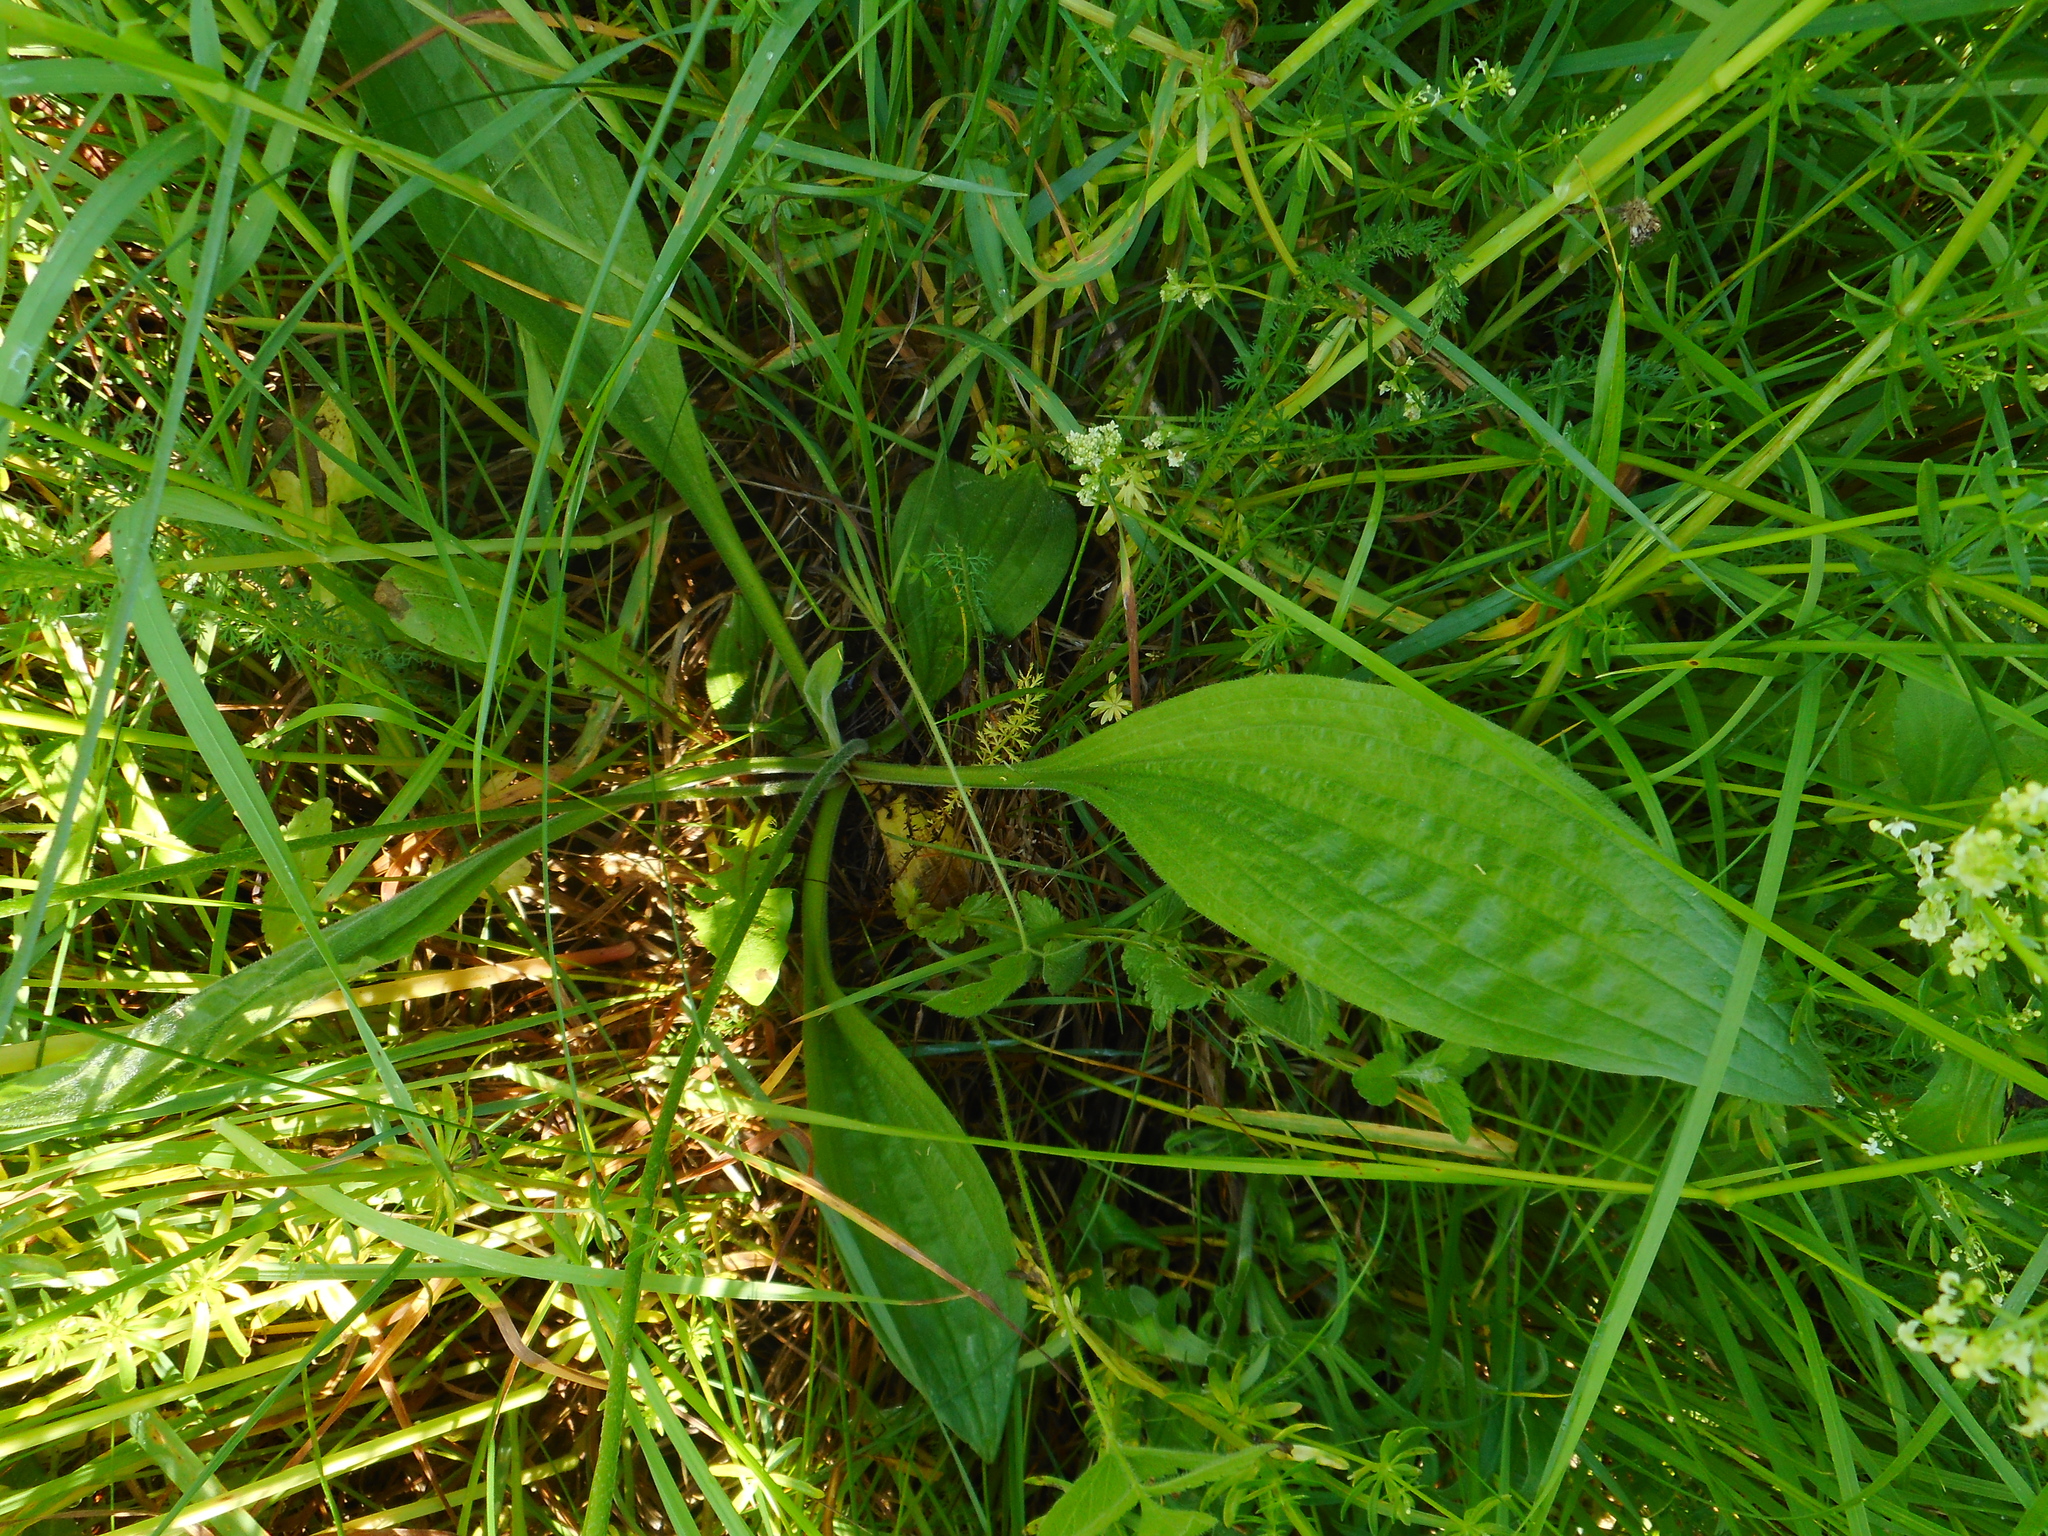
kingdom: Plantae
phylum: Tracheophyta
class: Magnoliopsida
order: Lamiales
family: Plantaginaceae
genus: Plantago
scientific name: Plantago media
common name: Hoary plantain
